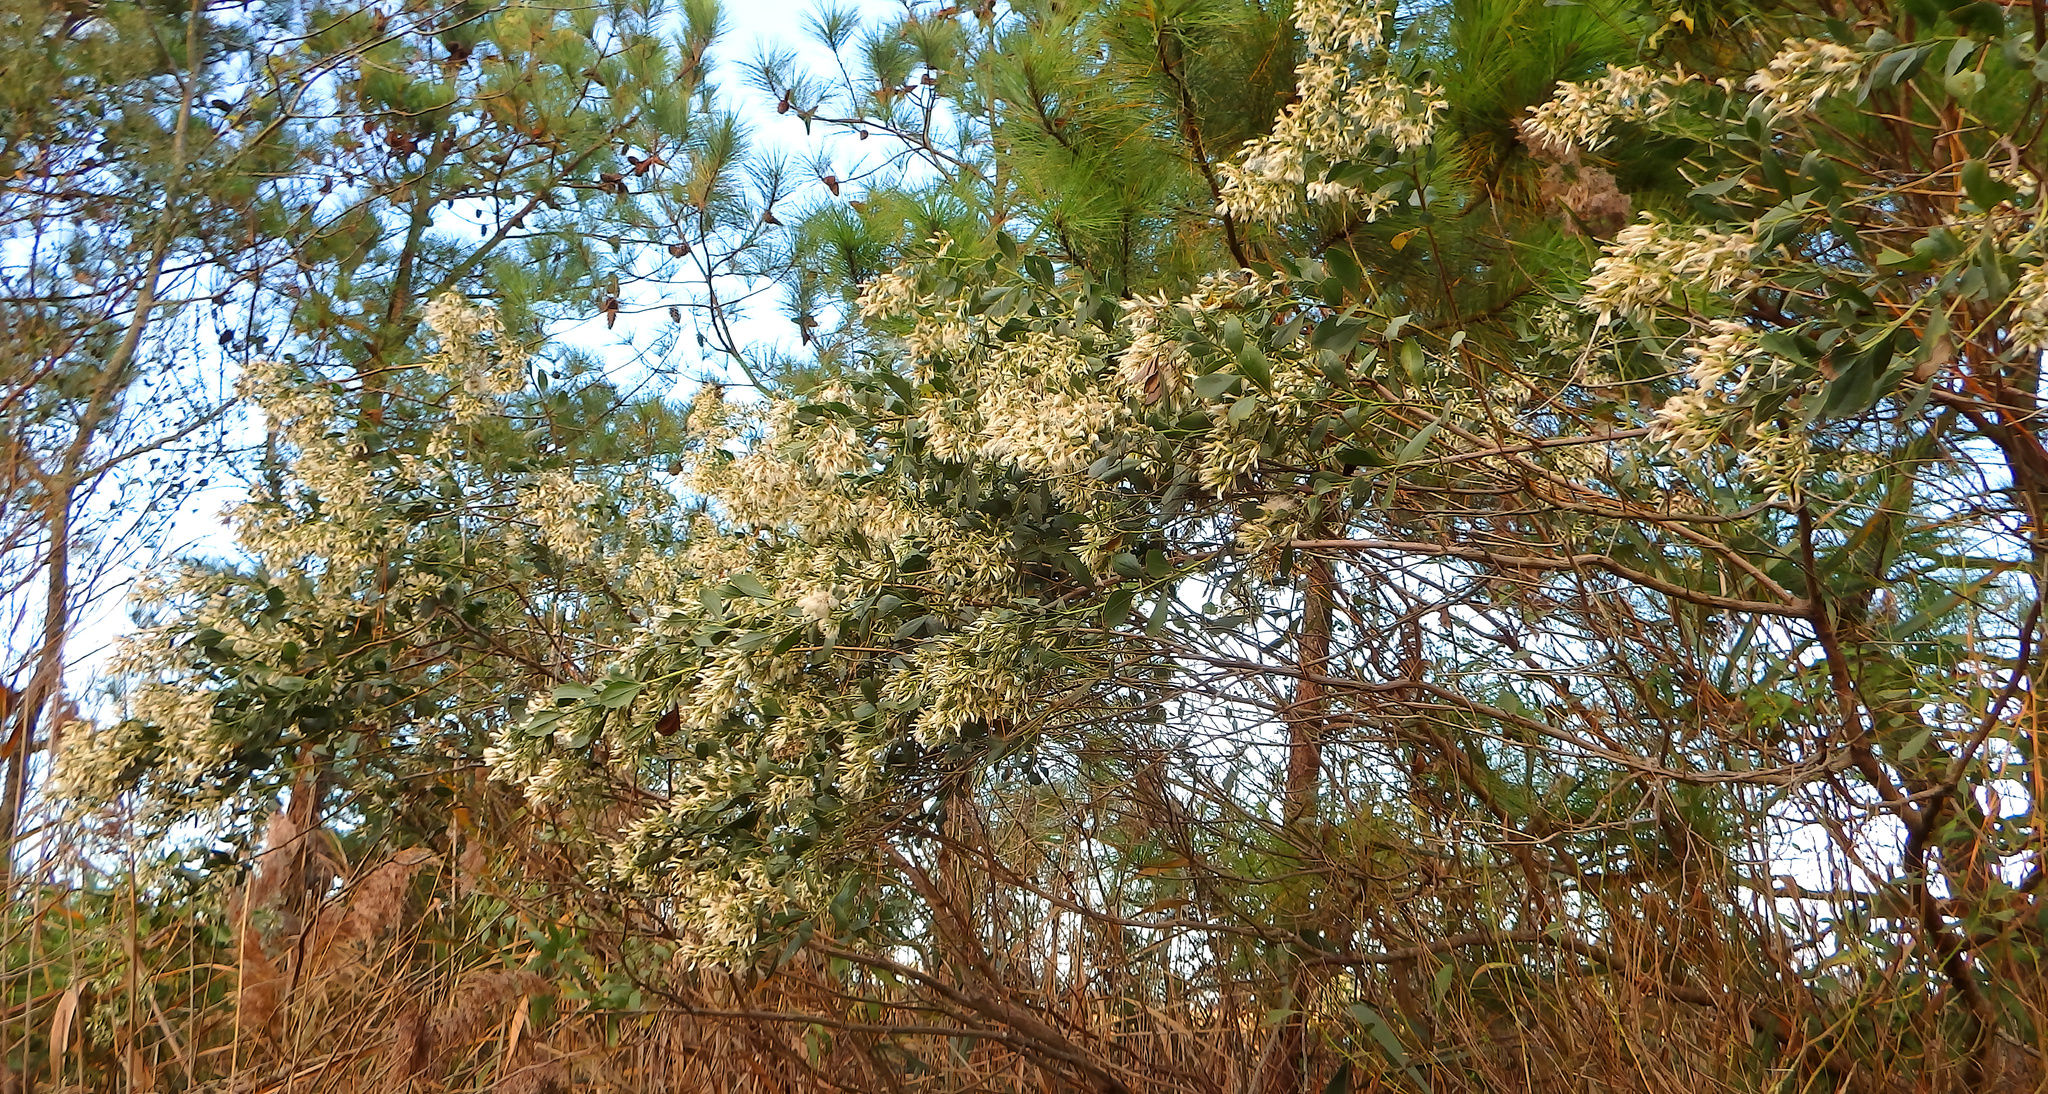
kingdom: Plantae
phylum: Tracheophyta
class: Magnoliopsida
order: Asterales
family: Asteraceae
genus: Baccharis
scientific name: Baccharis halimifolia
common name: Eastern baccharis
